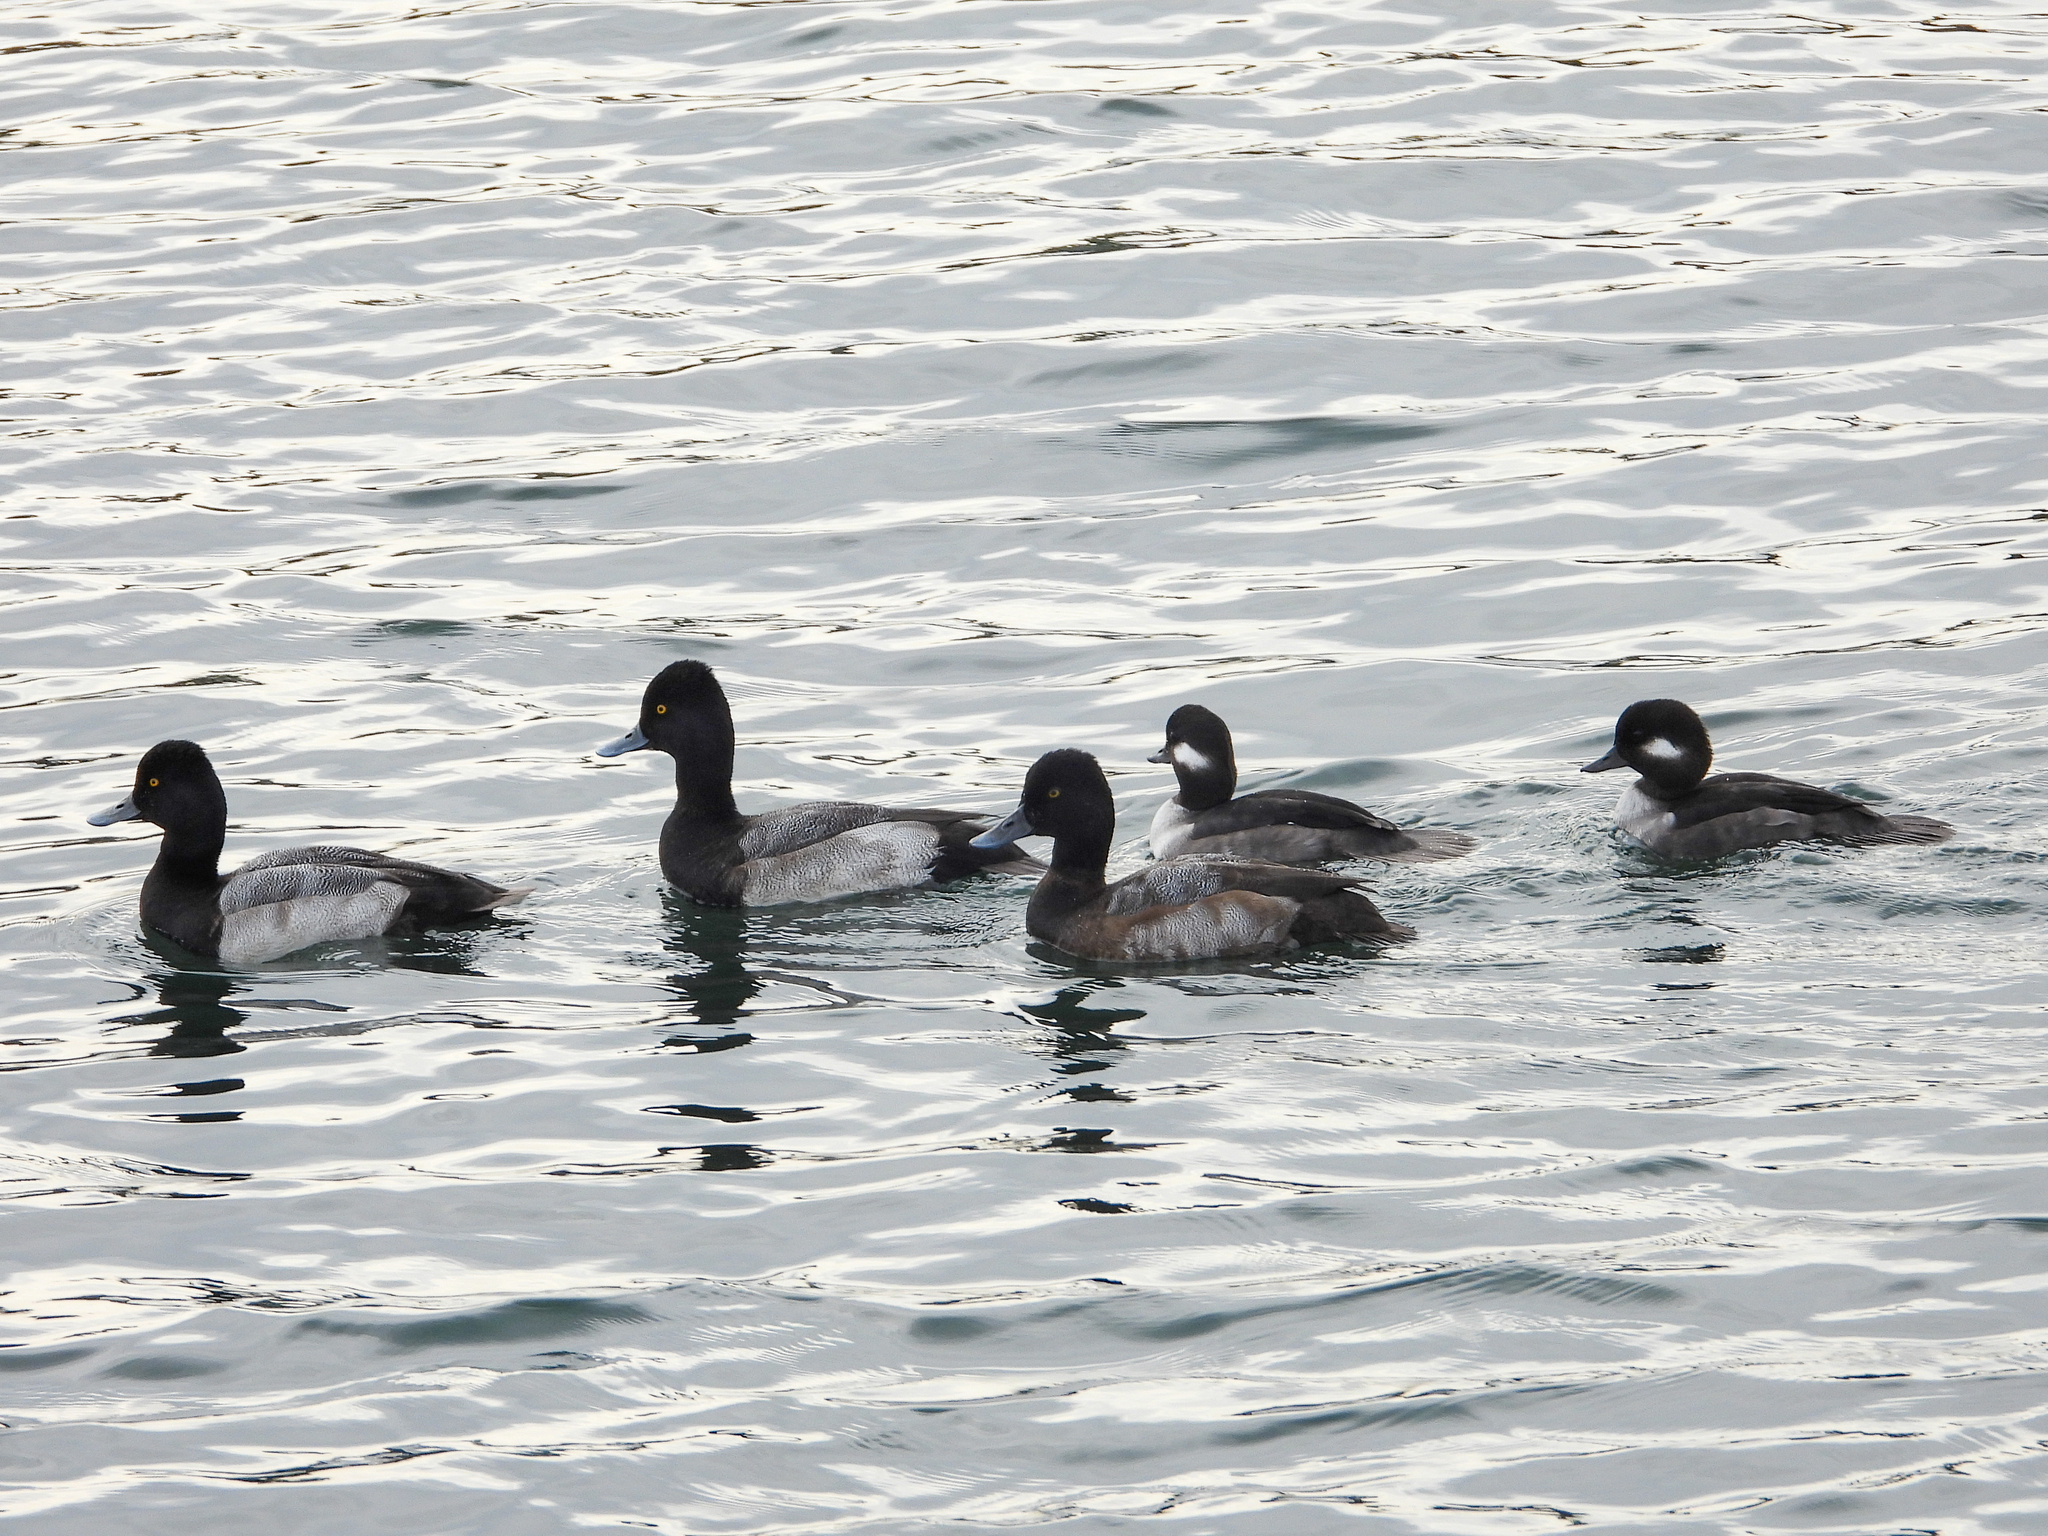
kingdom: Animalia
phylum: Chordata
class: Aves
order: Anseriformes
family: Anatidae
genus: Aythya
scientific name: Aythya affinis
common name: Lesser scaup
